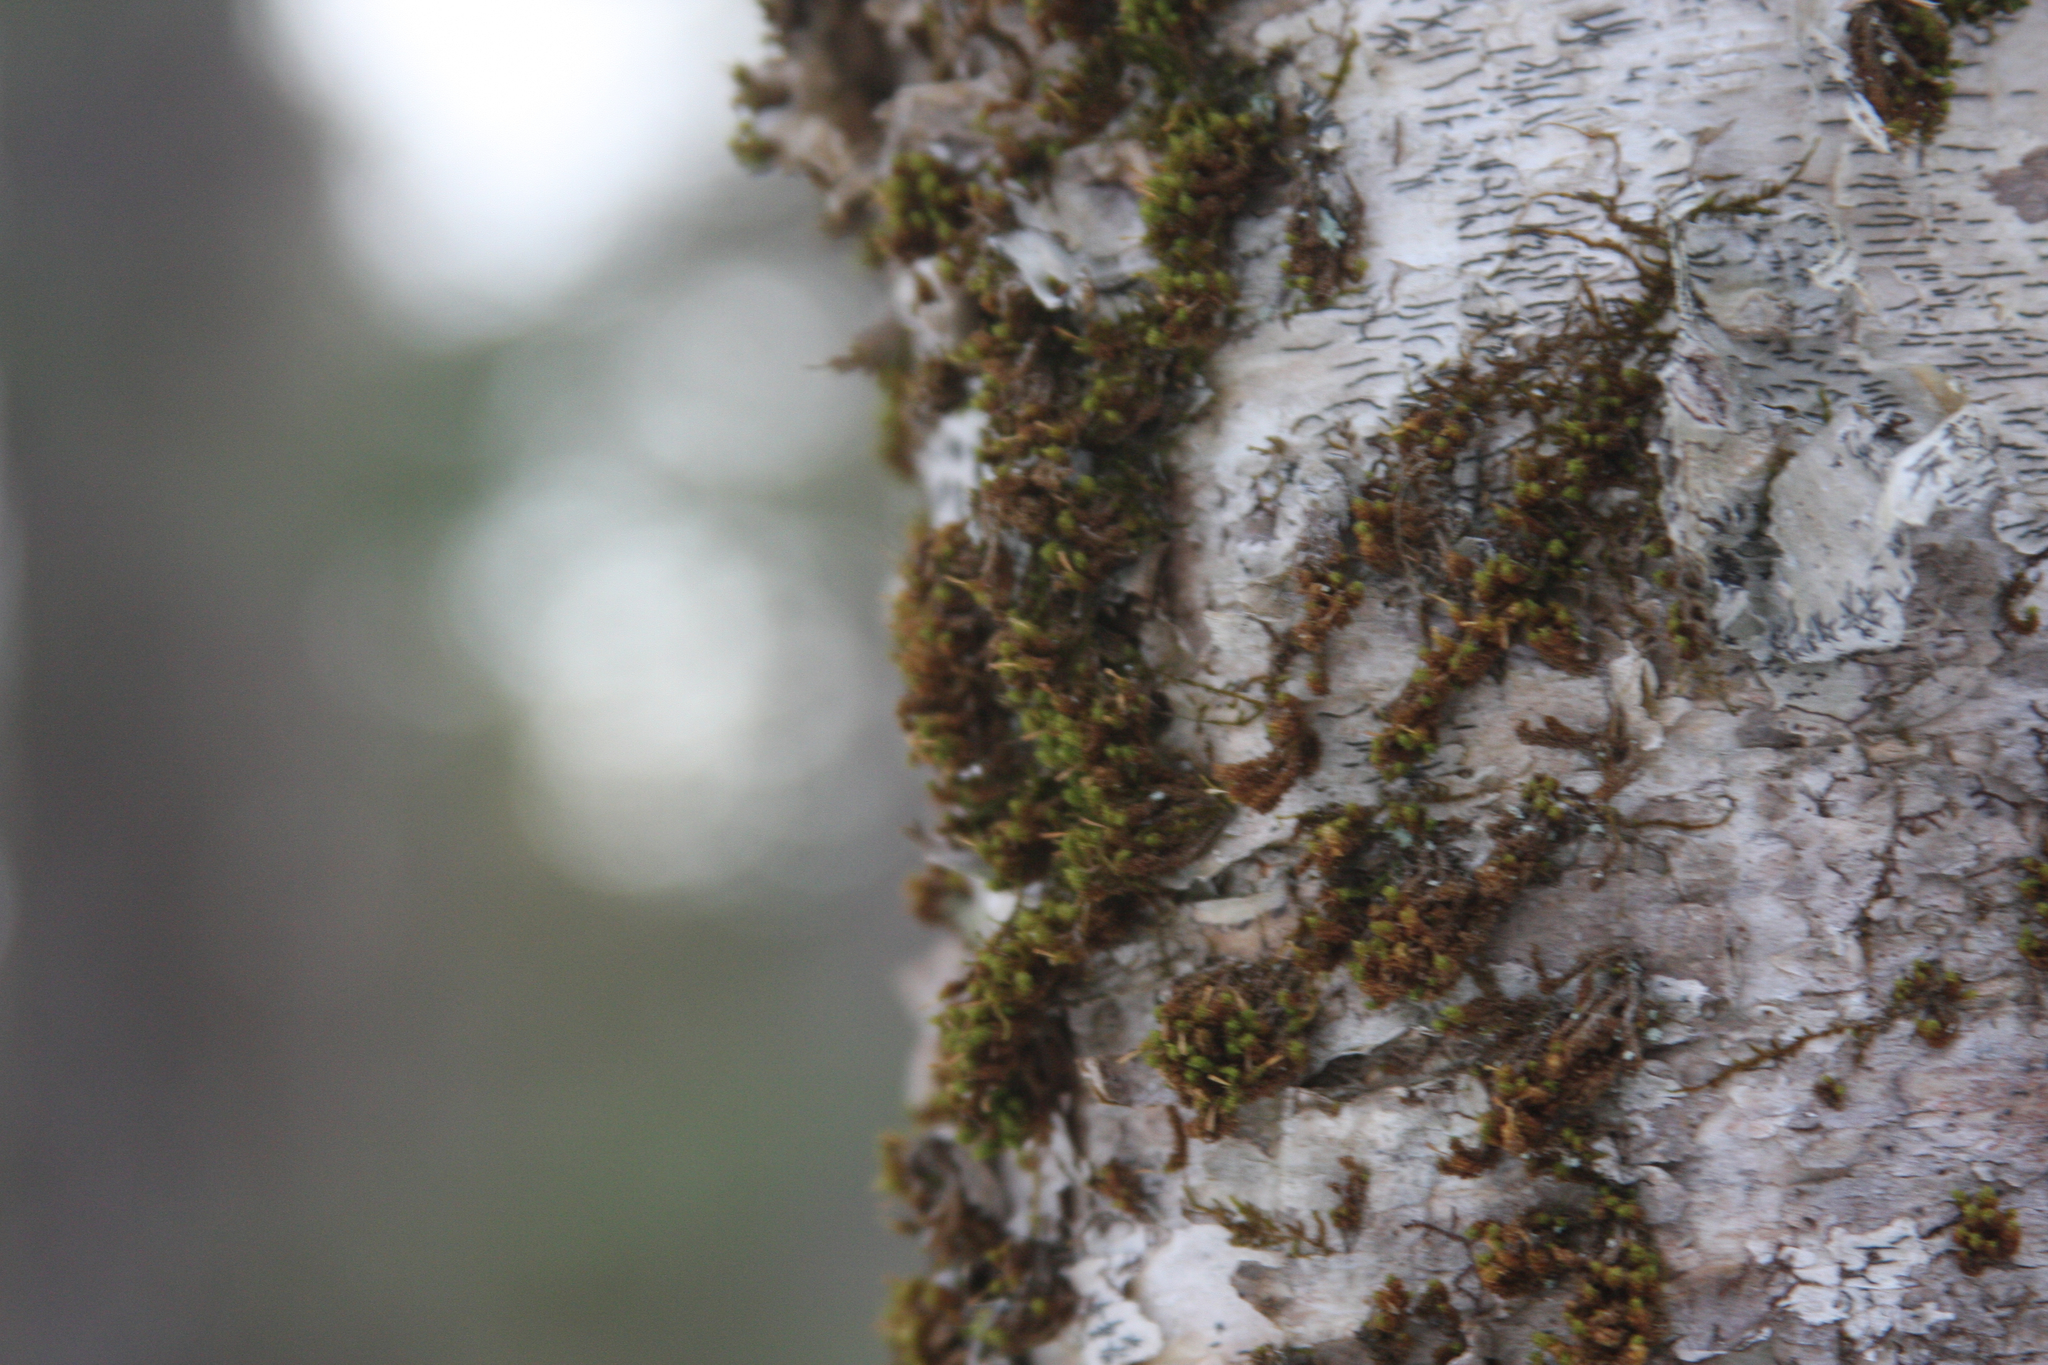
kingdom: Plantae
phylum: Bryophyta
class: Bryopsida
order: Orthotrichales
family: Orthotrichaceae
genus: Ulota
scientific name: Ulota crispa
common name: Crisped pincushion moss
